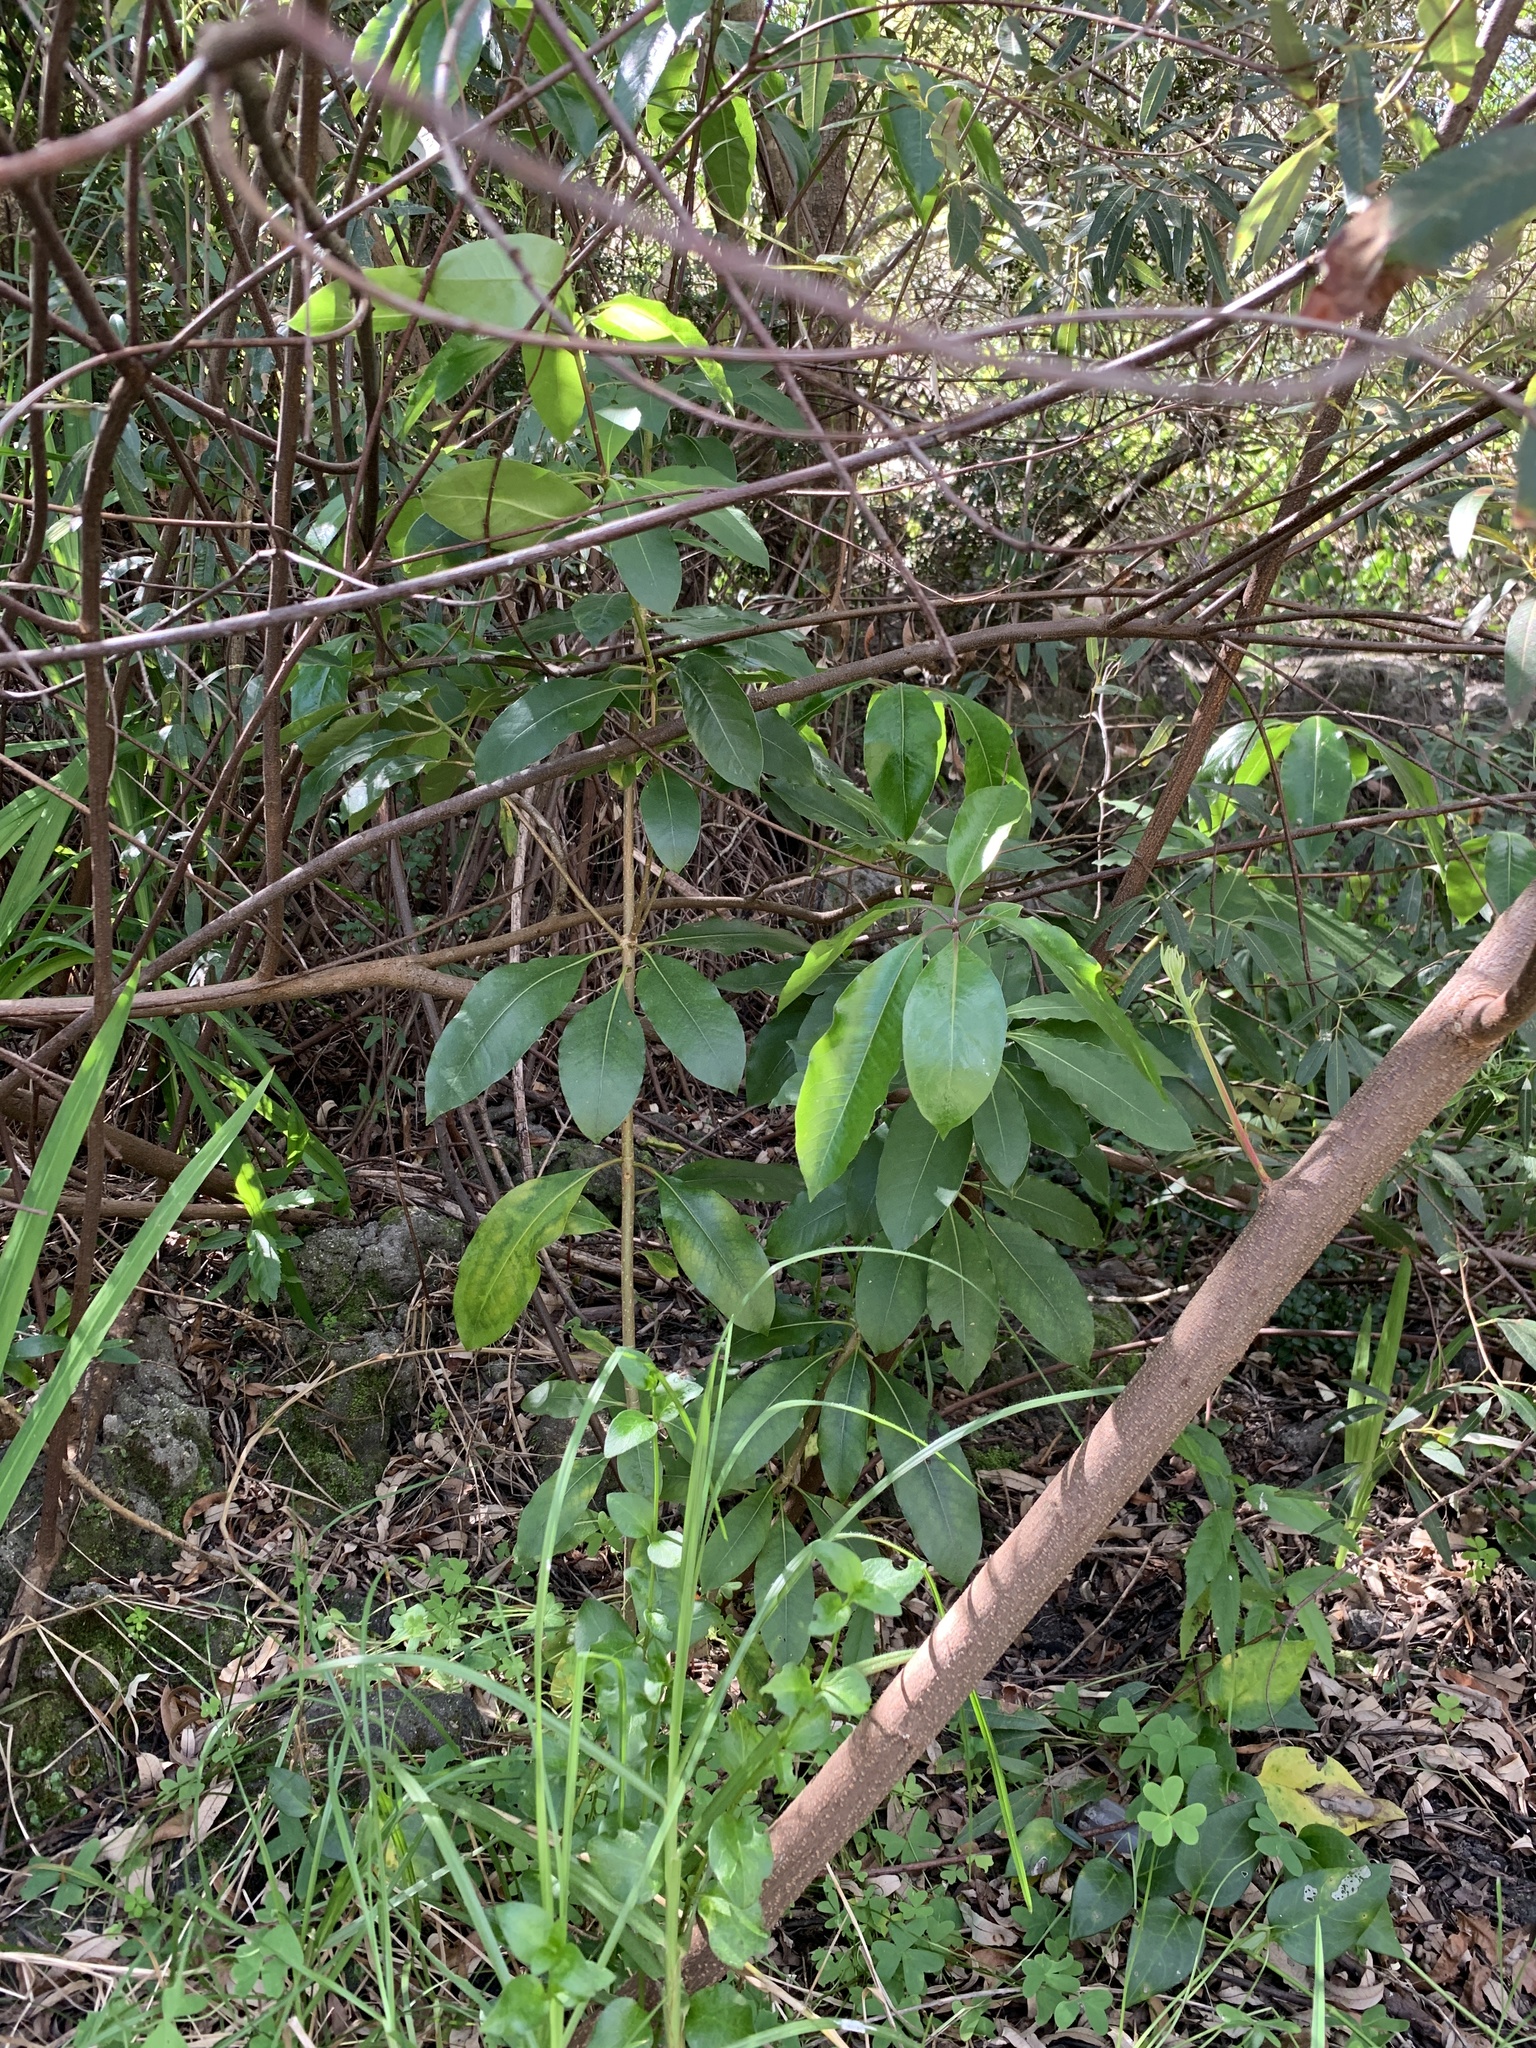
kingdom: Plantae
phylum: Tracheophyta
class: Magnoliopsida
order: Malpighiales
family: Achariaceae
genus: Kiggelaria
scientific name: Kiggelaria africana
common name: Wild peach
